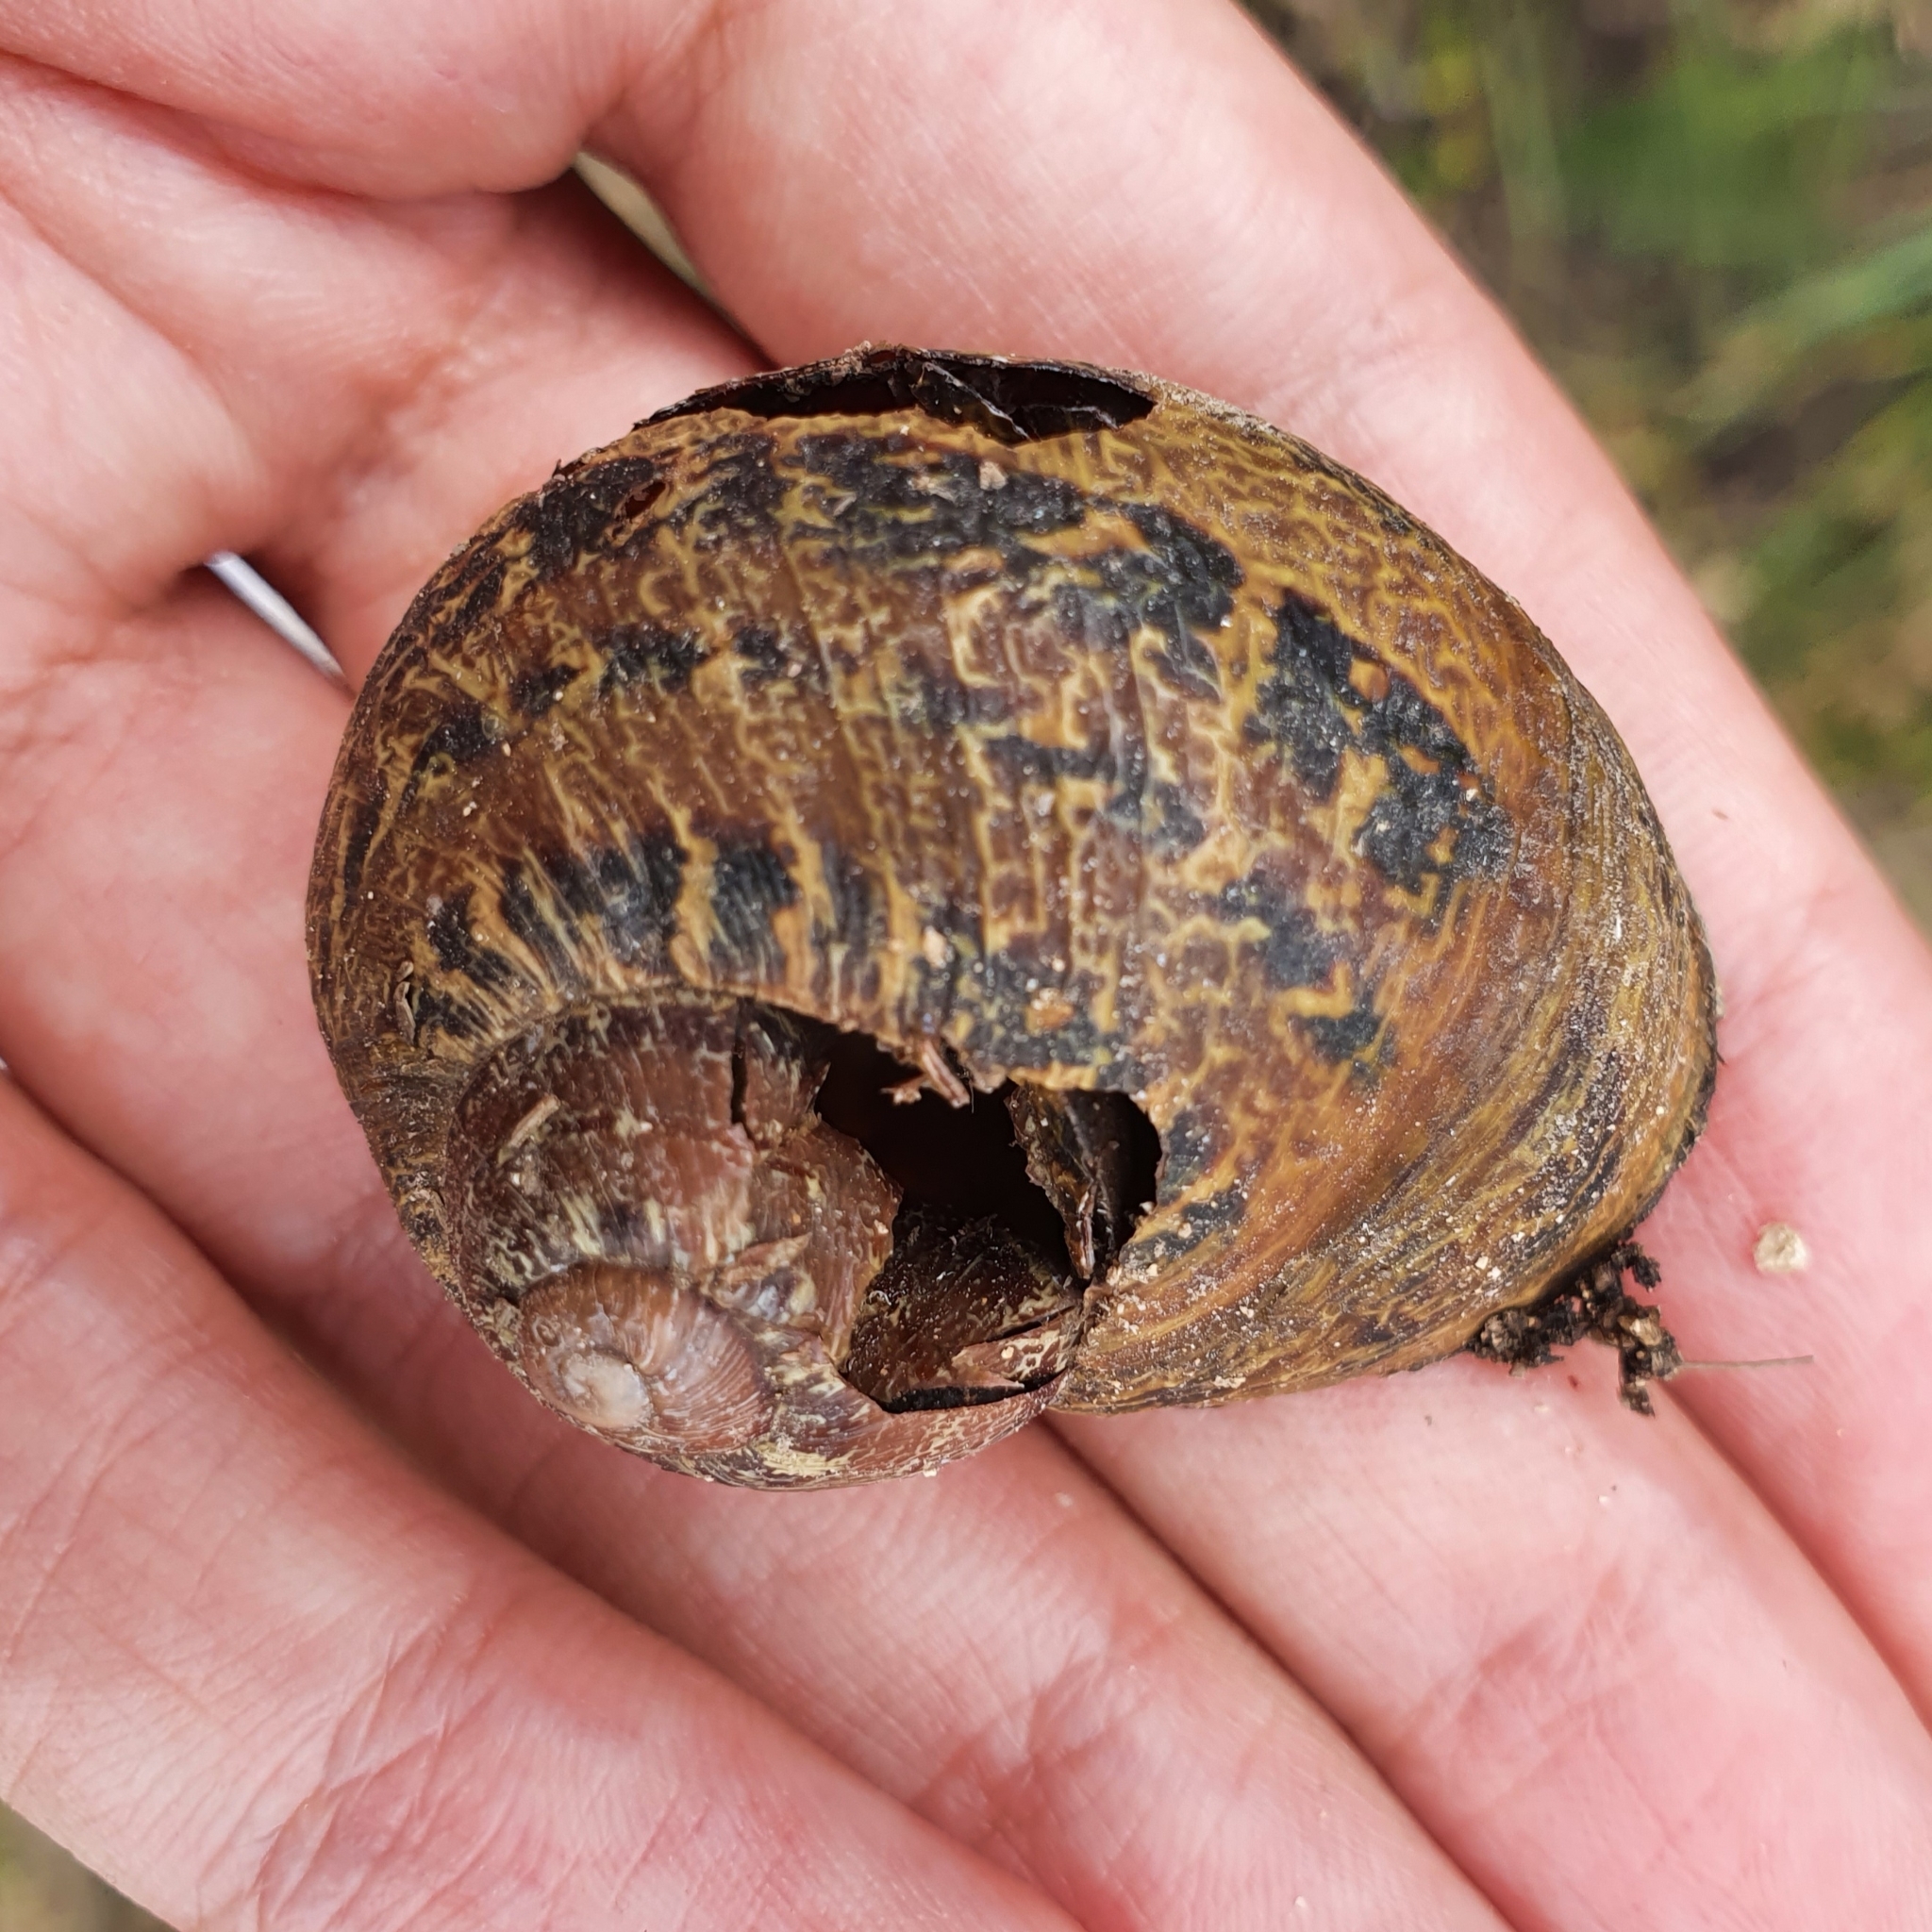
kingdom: Animalia
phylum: Mollusca
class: Gastropoda
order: Stylommatophora
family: Helicidae
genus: Cornu
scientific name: Cornu aspersum
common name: Brown garden snail
